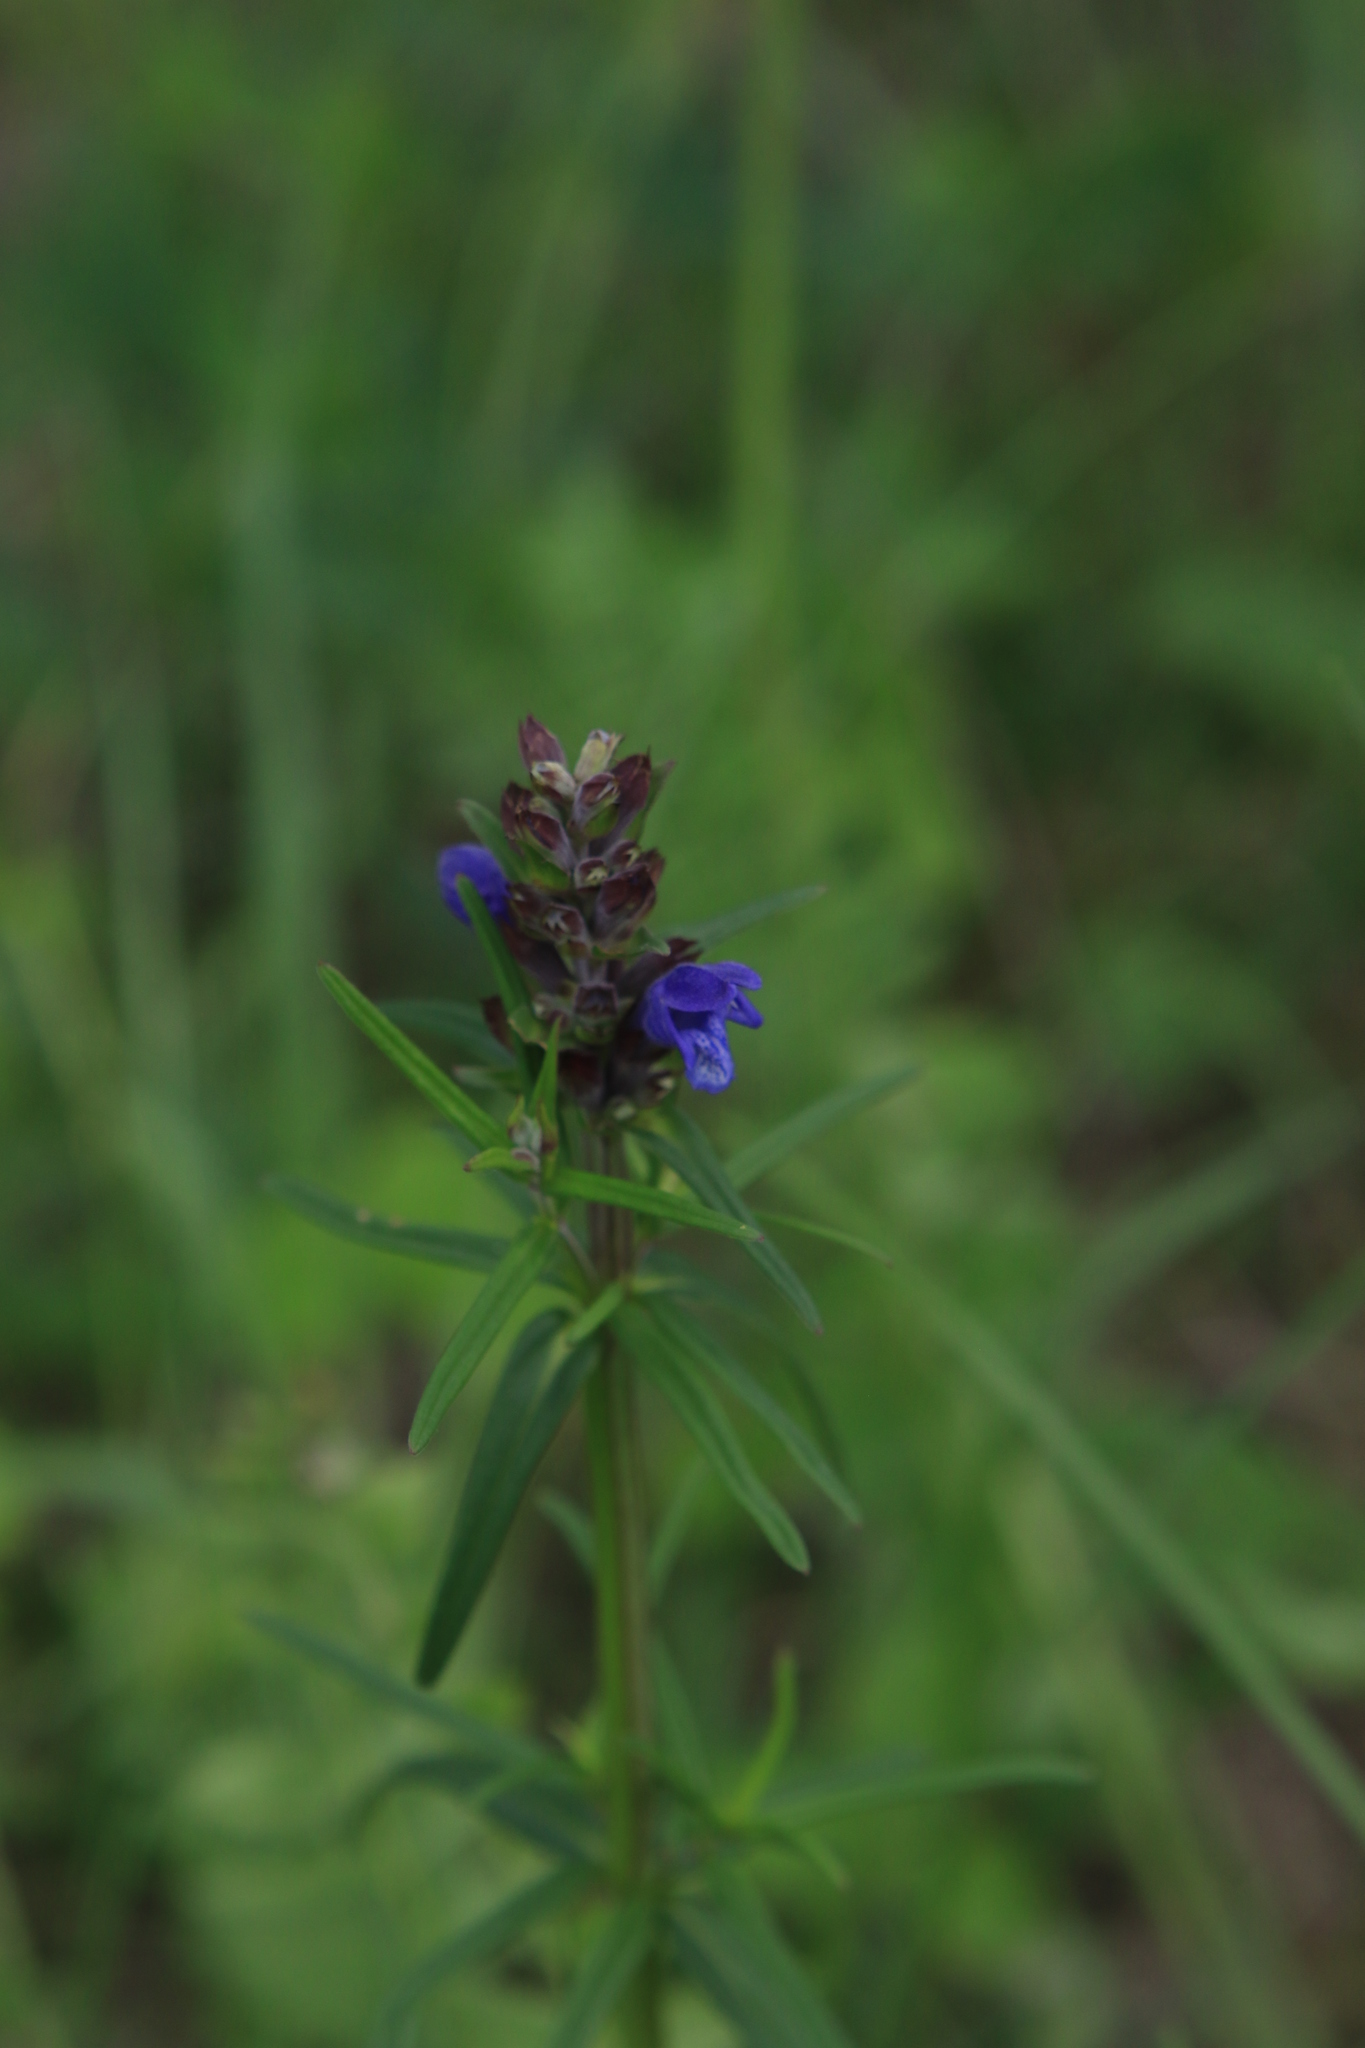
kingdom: Plantae
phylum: Tracheophyta
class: Magnoliopsida
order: Lamiales
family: Lamiaceae
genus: Dracocephalum
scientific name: Dracocephalum ruyschiana
